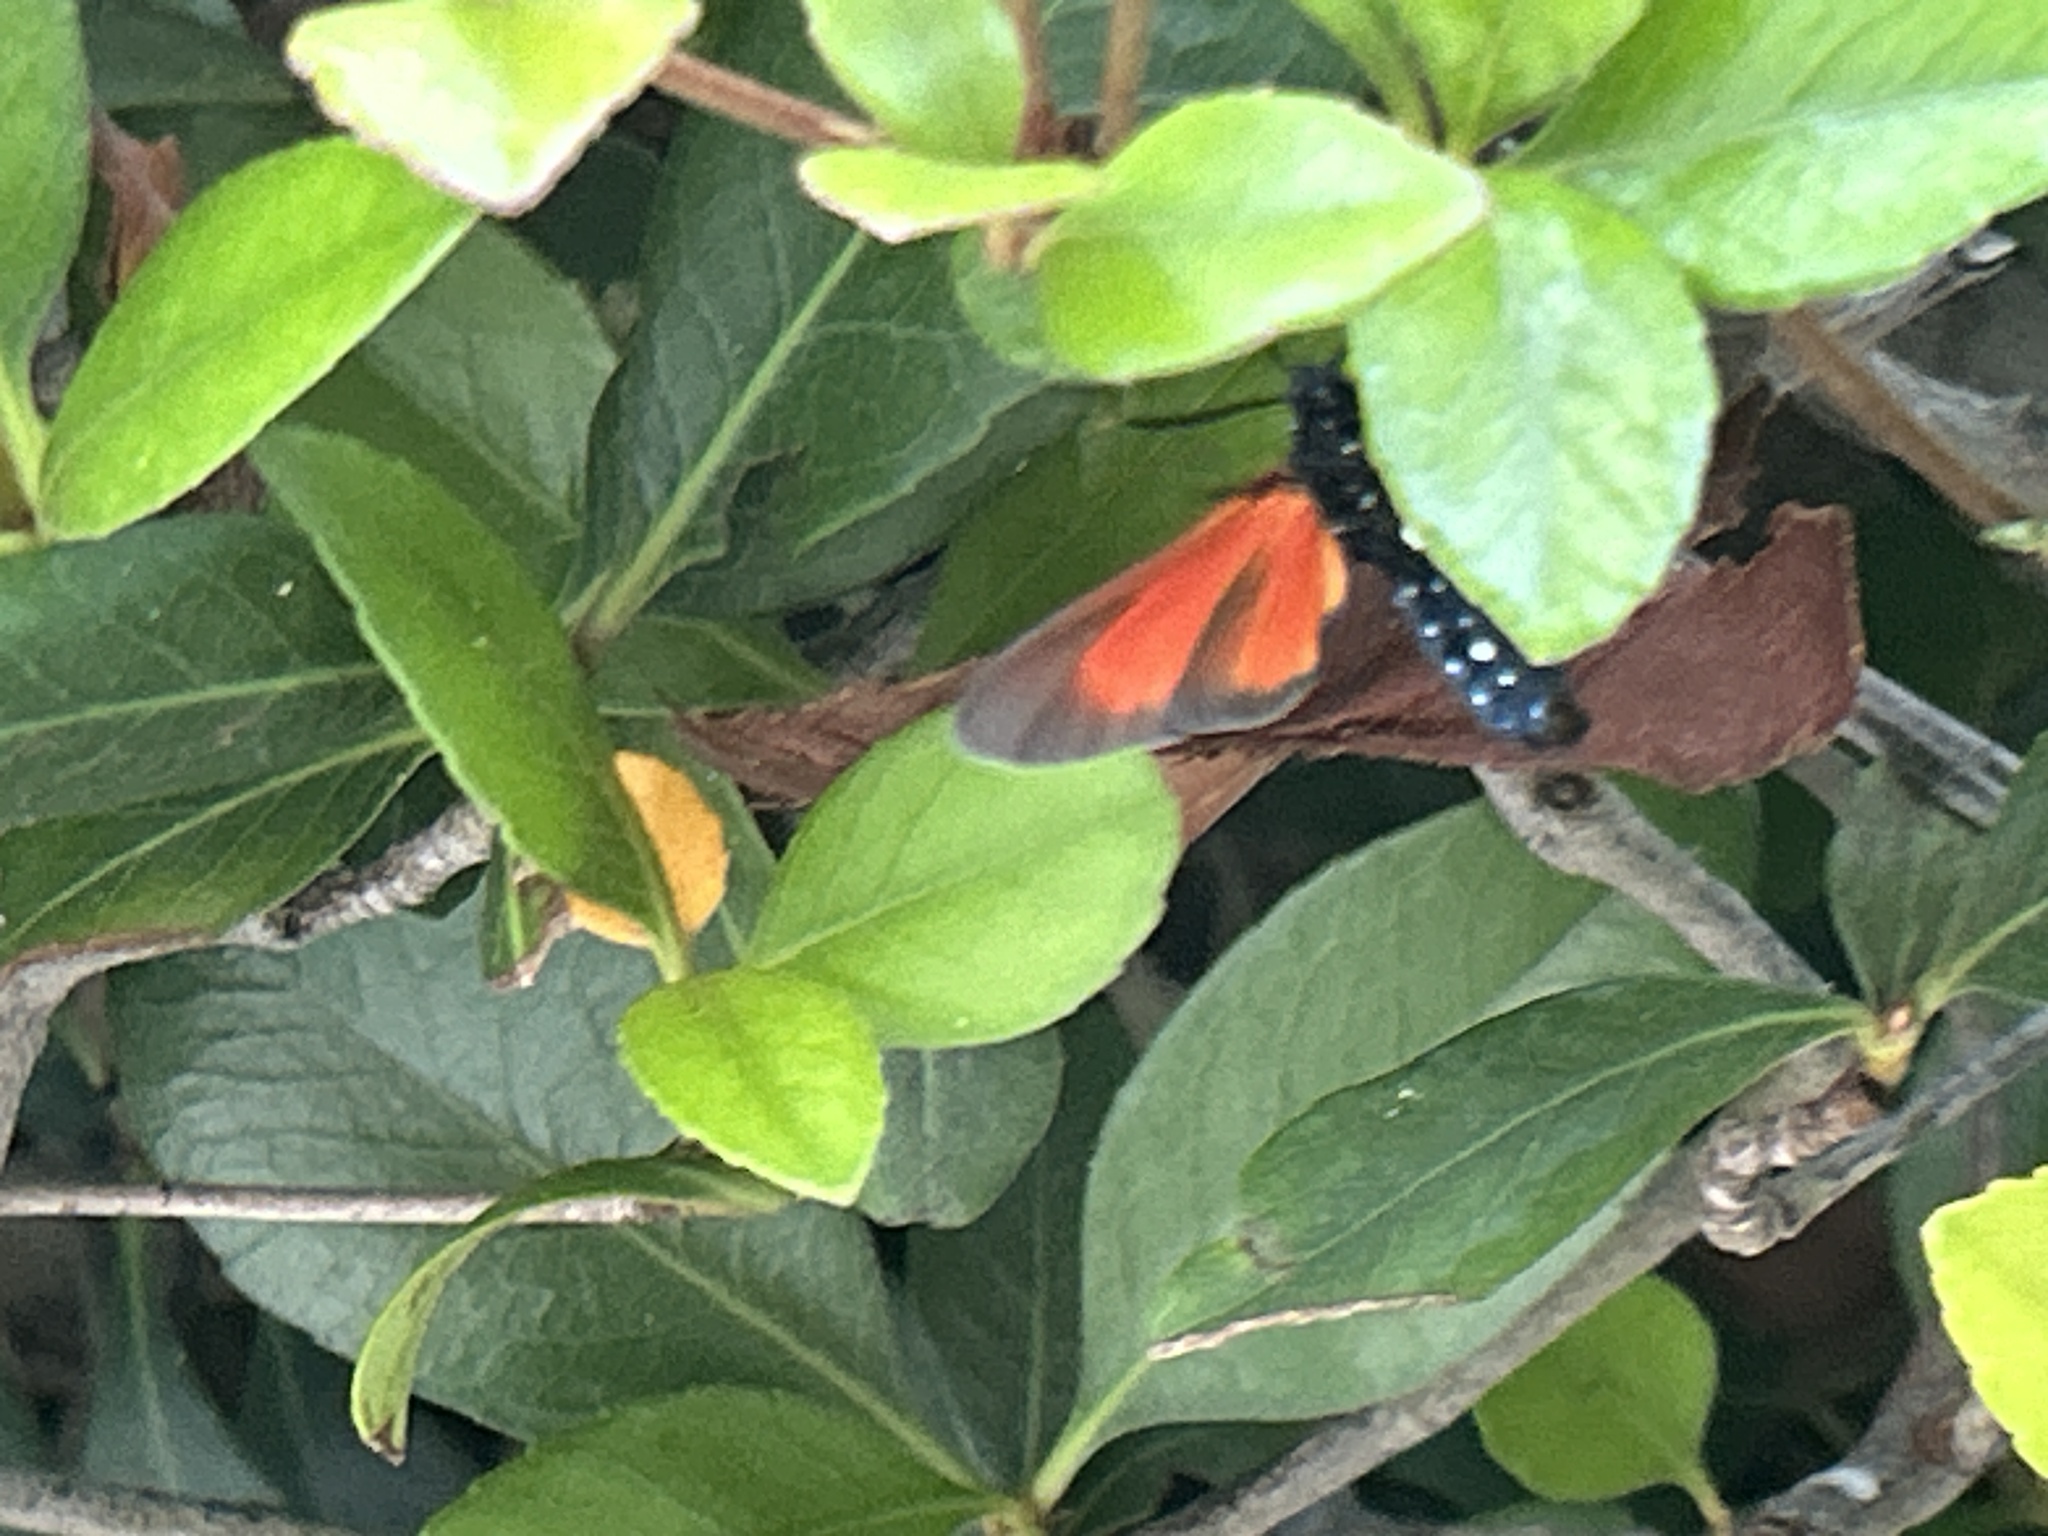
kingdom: Animalia
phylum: Arthropoda
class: Insecta
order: Lepidoptera
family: Erebidae
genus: Empyreuma
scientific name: Empyreuma pugione
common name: Spotted oleander caterpillar moth
